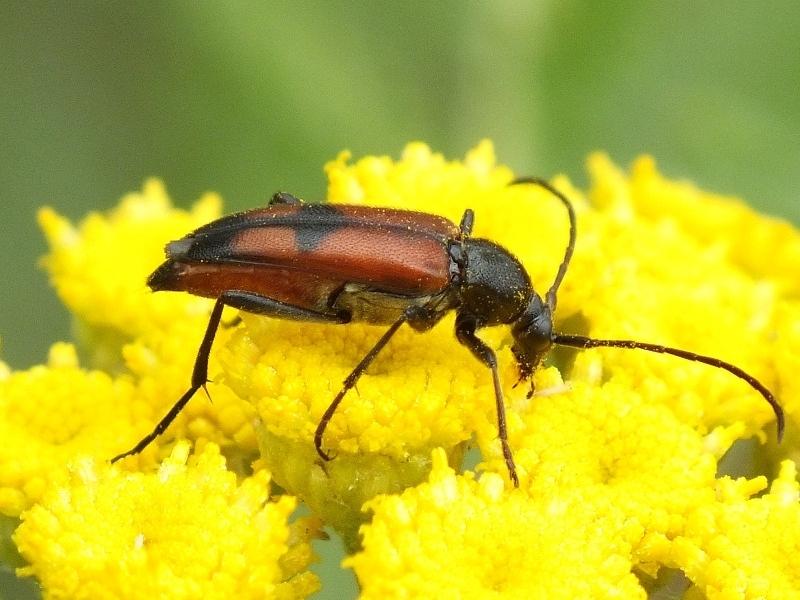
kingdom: Animalia
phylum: Arthropoda
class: Insecta
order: Coleoptera
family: Cerambycidae
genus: Stenurella
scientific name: Stenurella bifasciata
